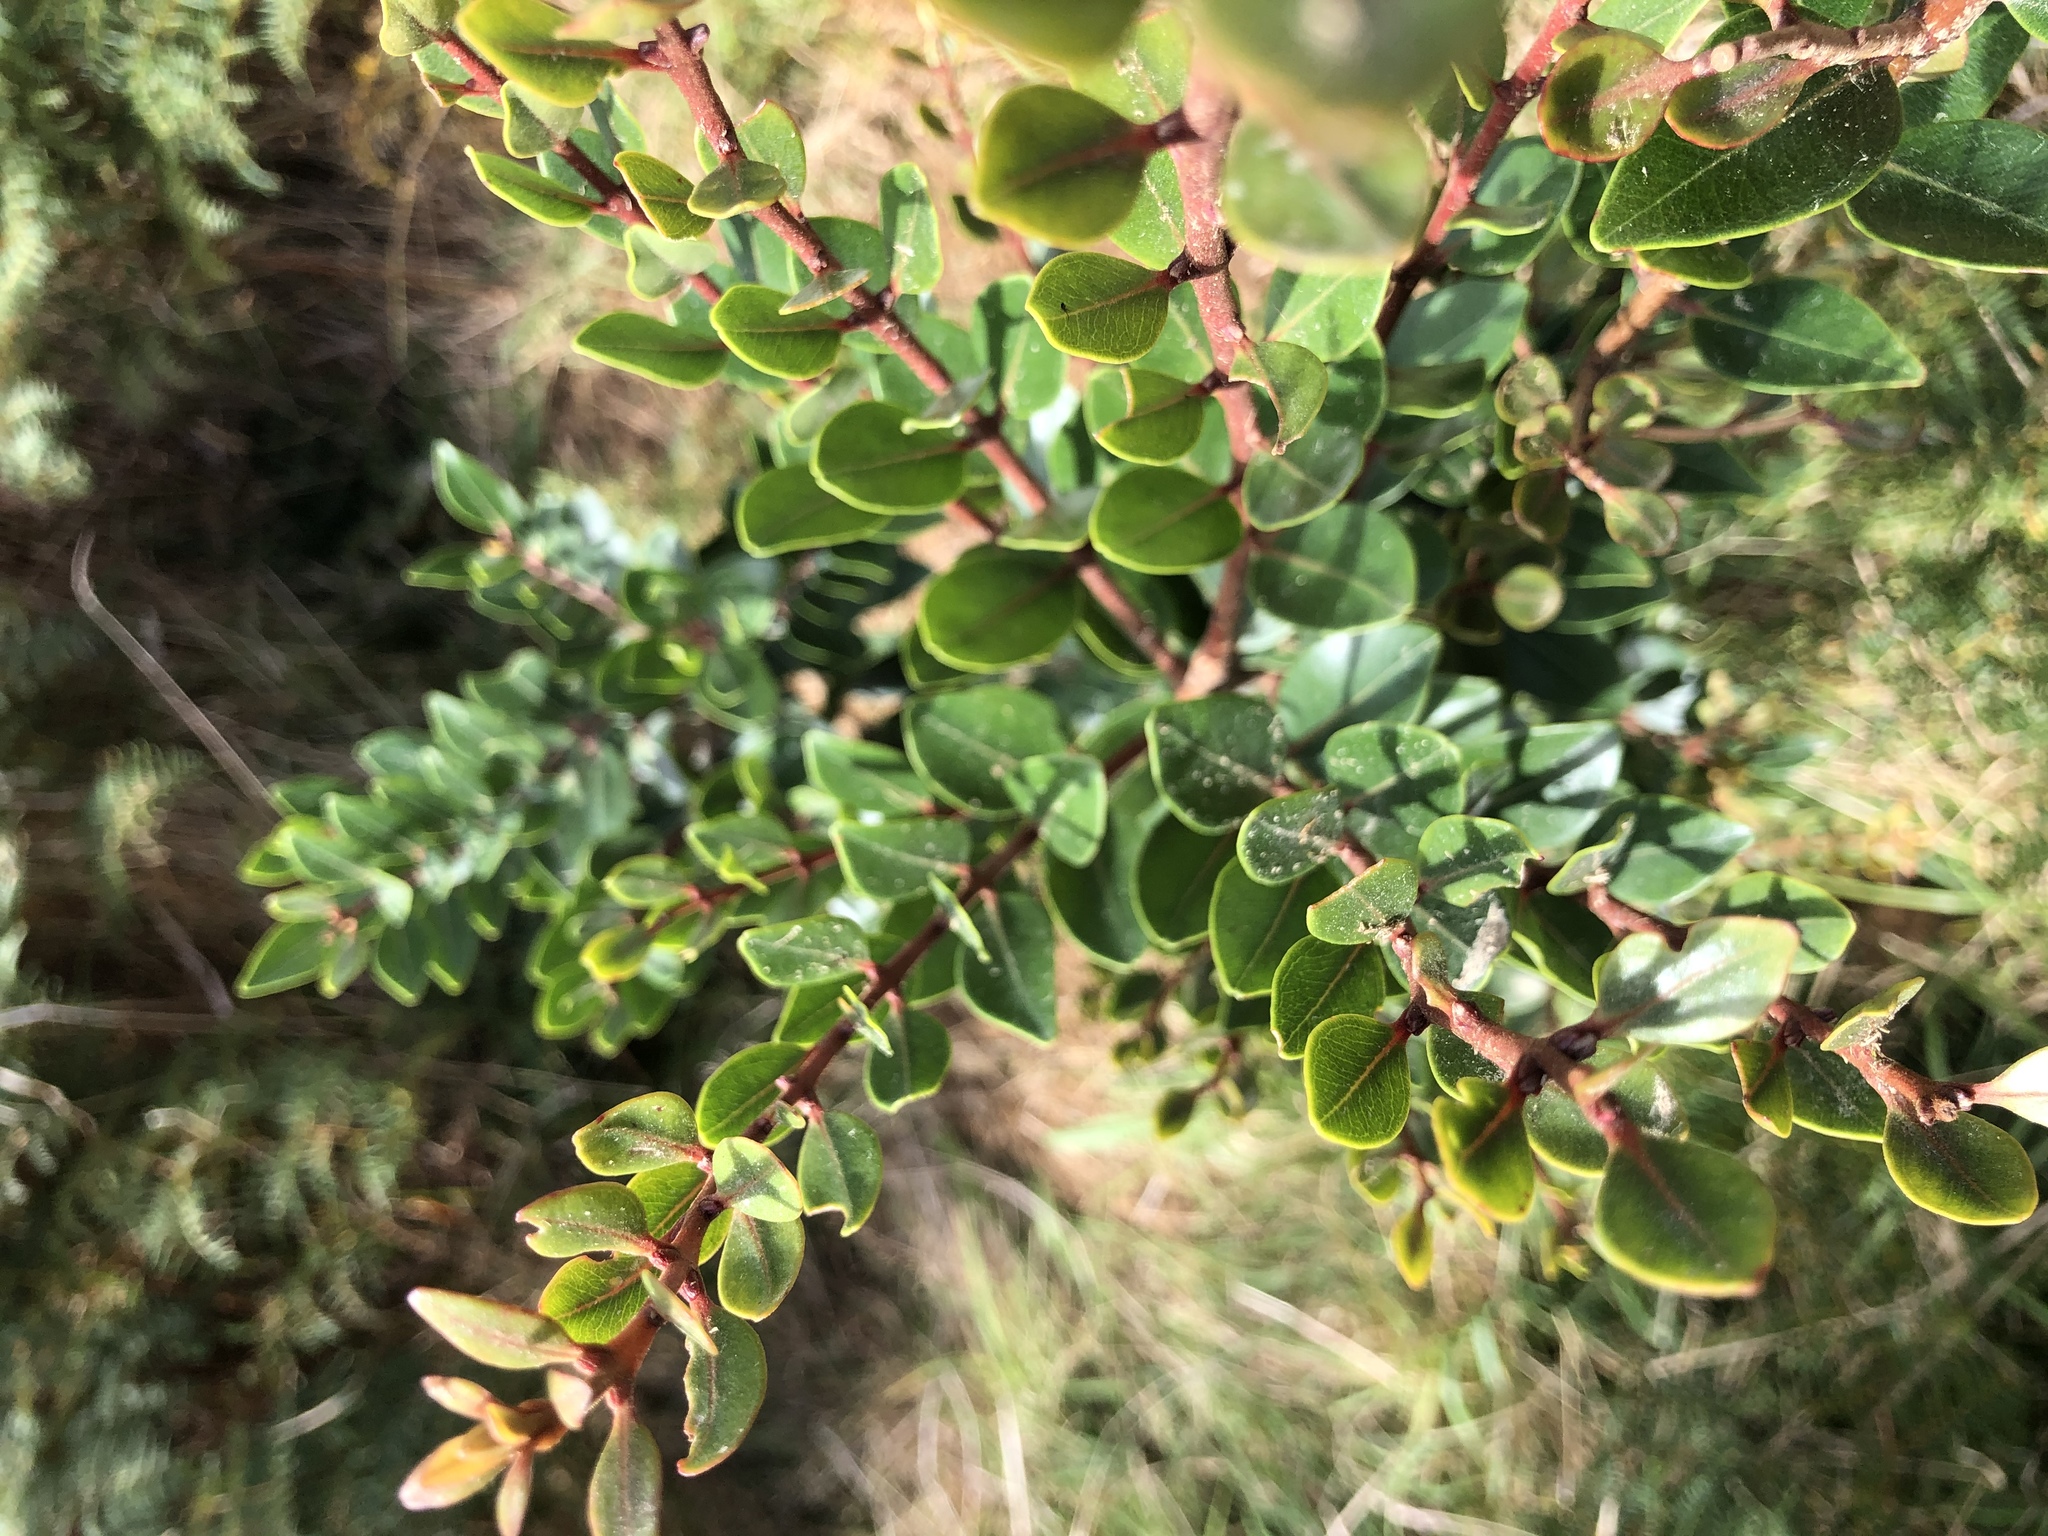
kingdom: Plantae
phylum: Tracheophyta
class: Magnoliopsida
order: Myrtales
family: Myrtaceae
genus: Metrosideros
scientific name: Metrosideros robusta
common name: Northern rata
